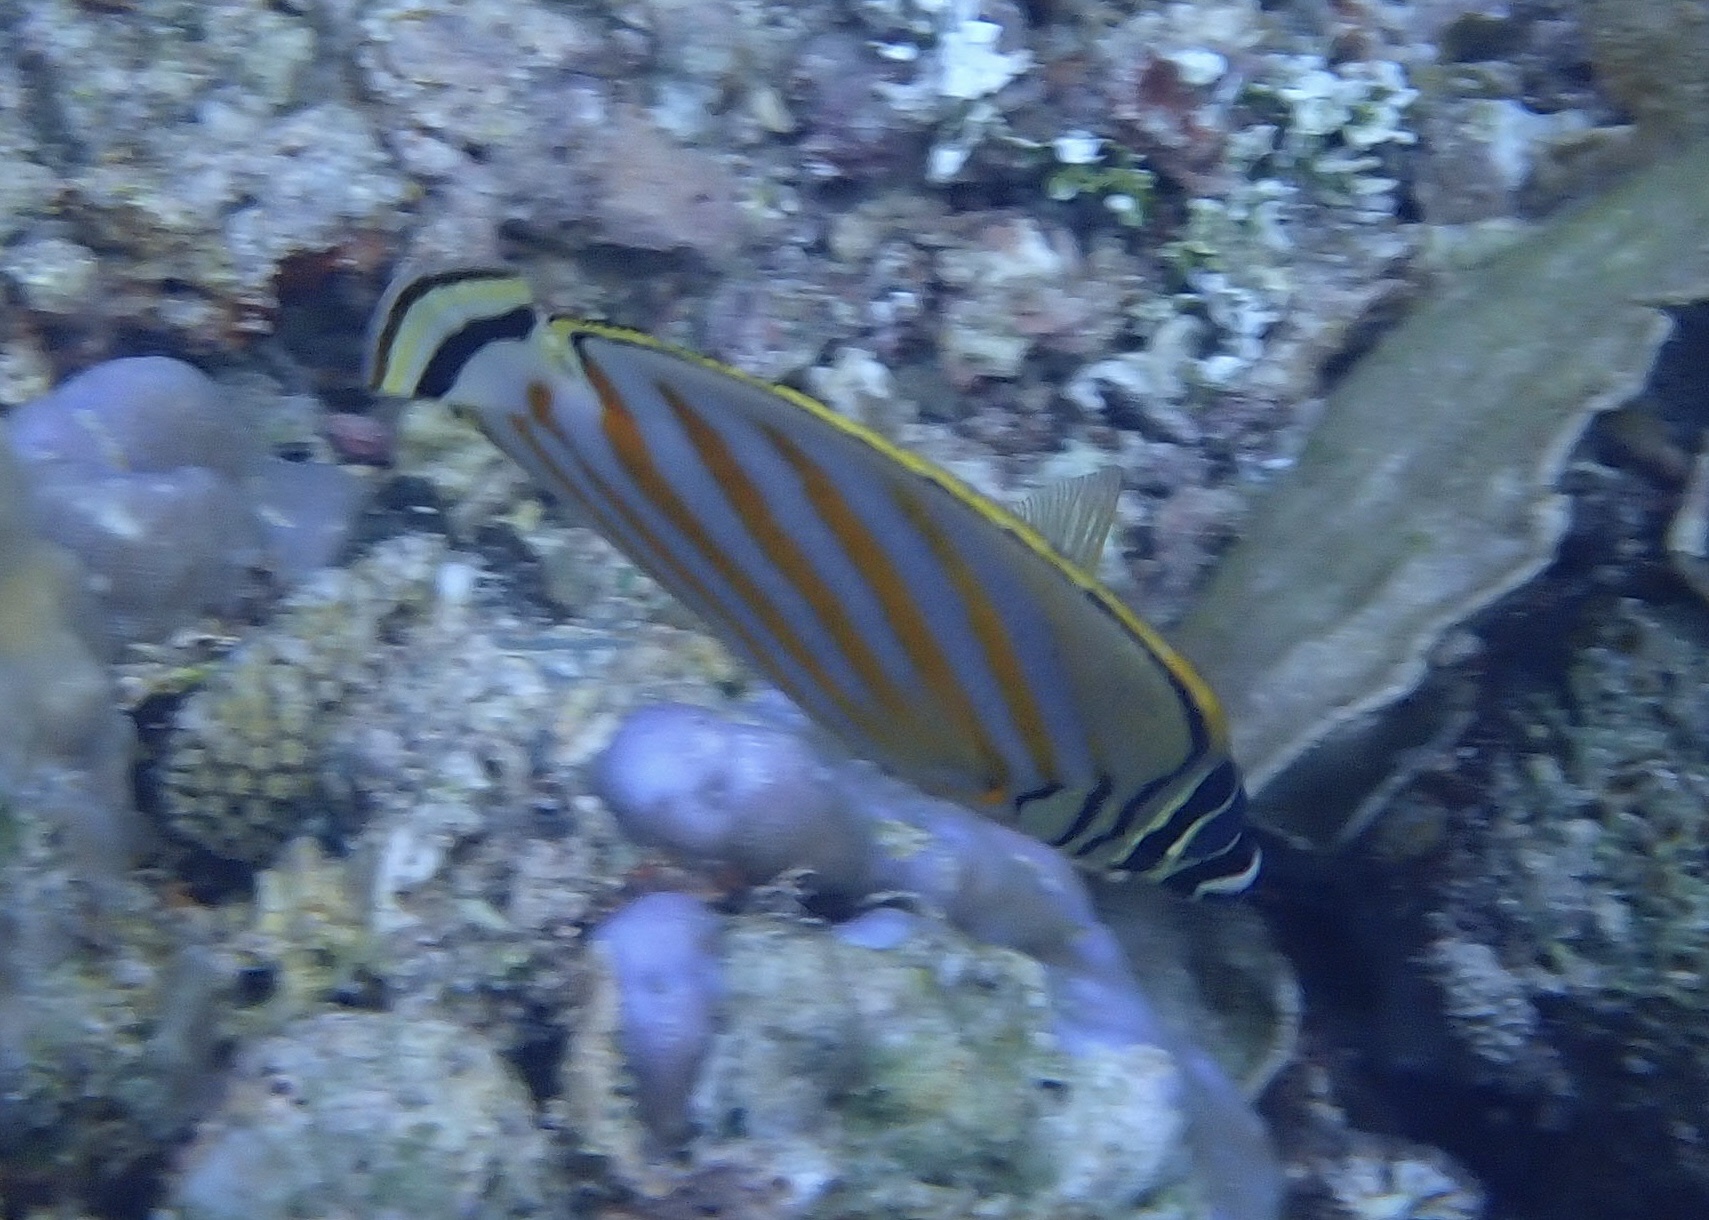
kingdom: Animalia
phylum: Chordata
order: Perciformes
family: Chaetodontidae
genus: Chaetodon
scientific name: Chaetodon ornatissimus
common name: Ornate butterflyfish
